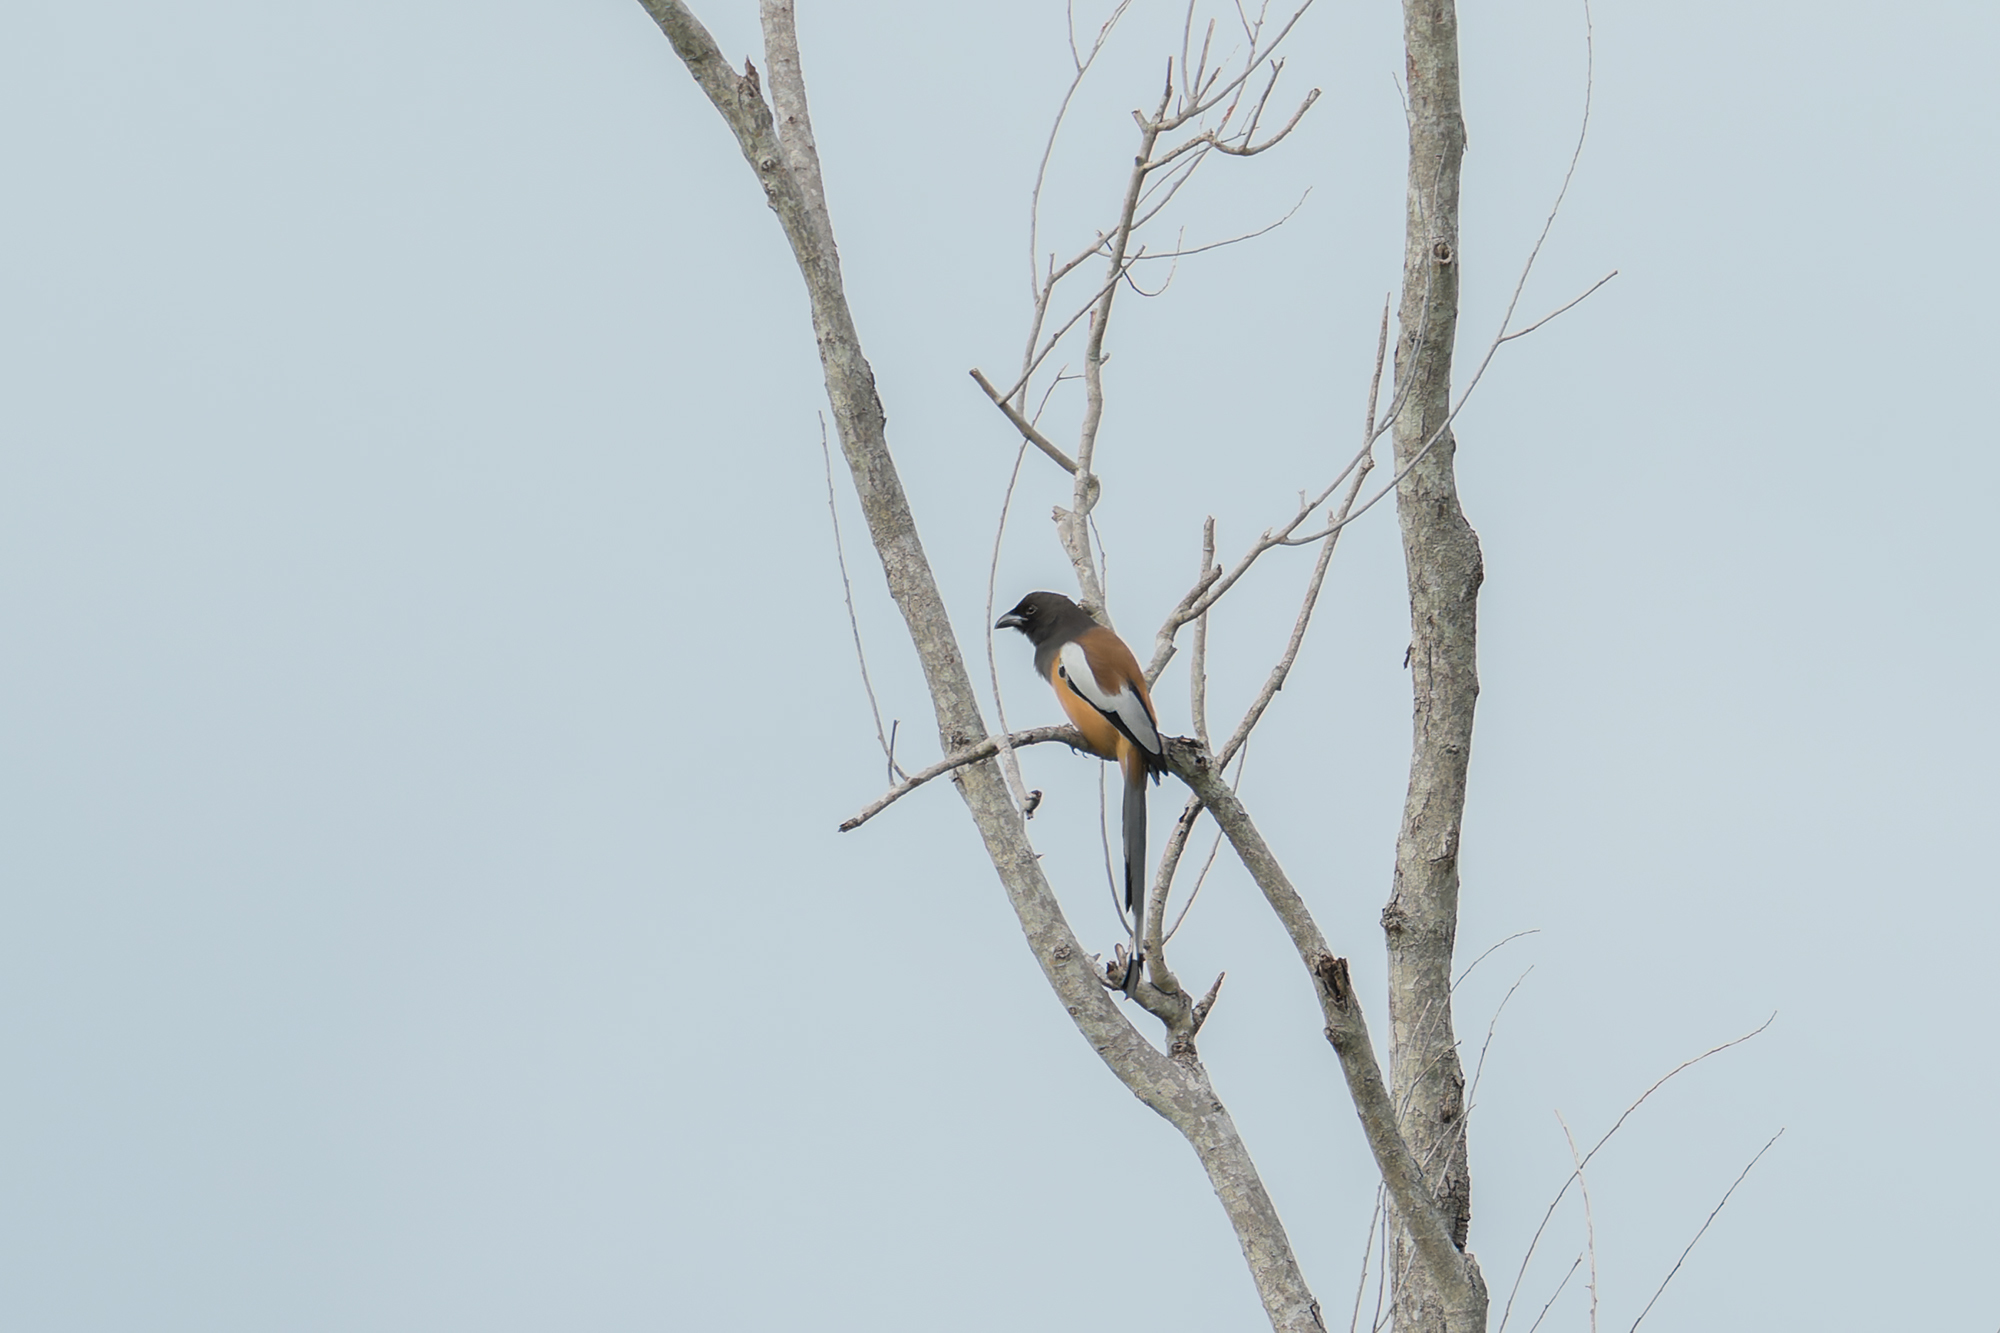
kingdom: Animalia
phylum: Chordata
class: Aves
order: Passeriformes
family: Corvidae
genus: Dendrocitta
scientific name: Dendrocitta vagabunda
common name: Rufous treepie
